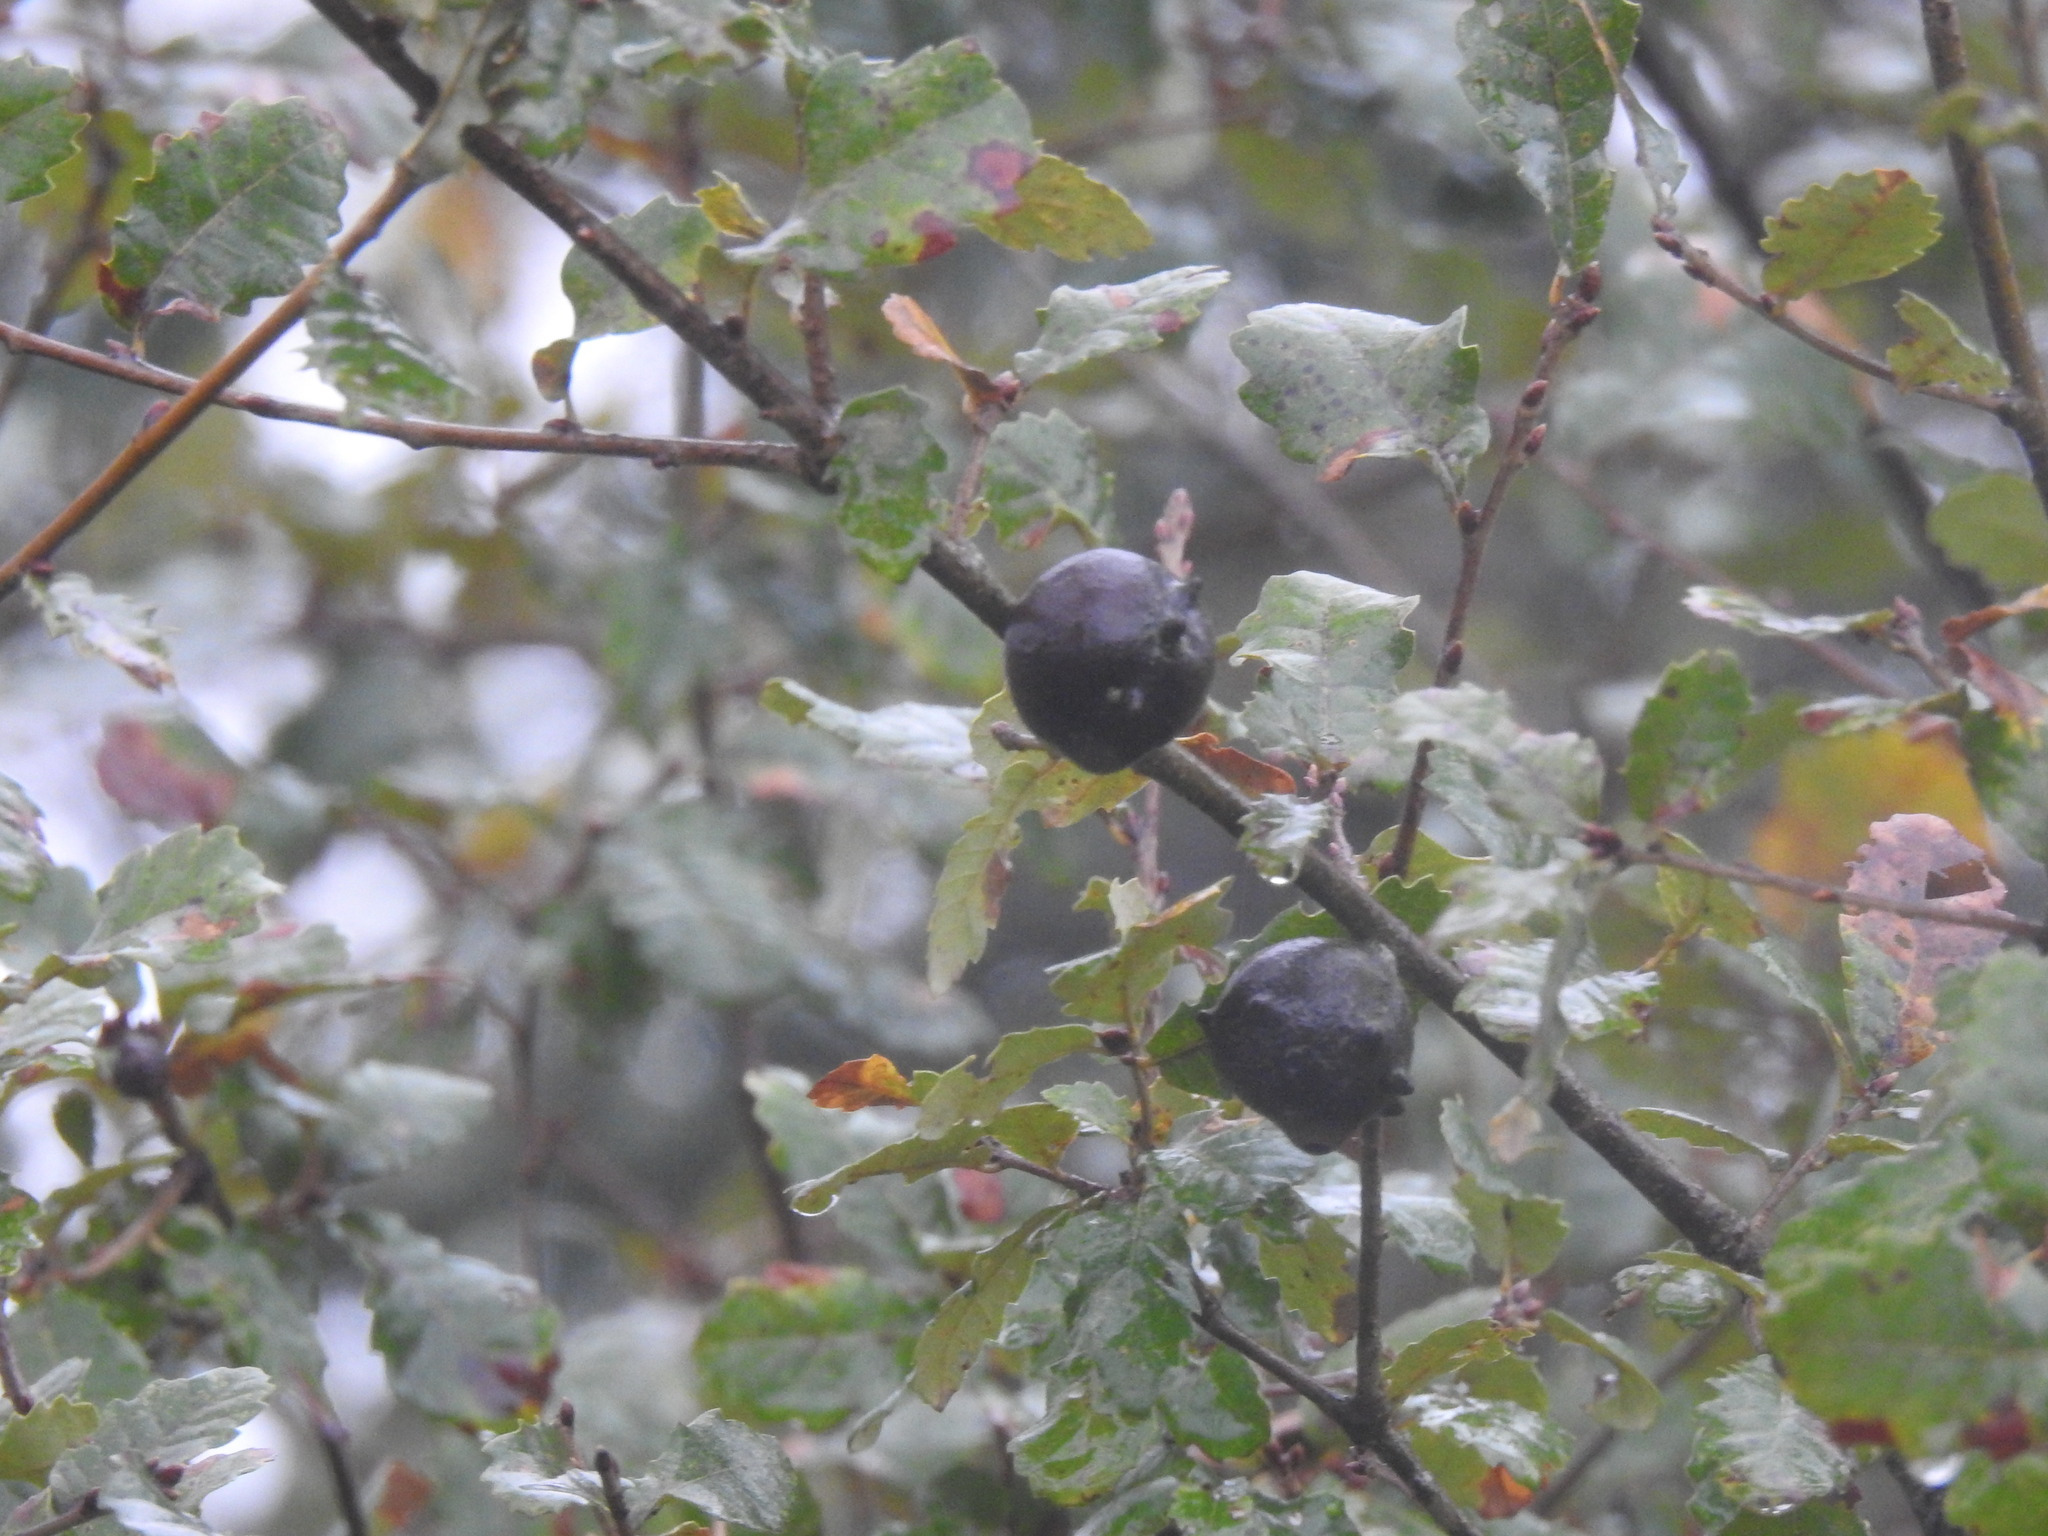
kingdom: Animalia
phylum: Arthropoda
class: Insecta
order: Hymenoptera
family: Cynipidae
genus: Andricus
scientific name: Andricus quercustozae
